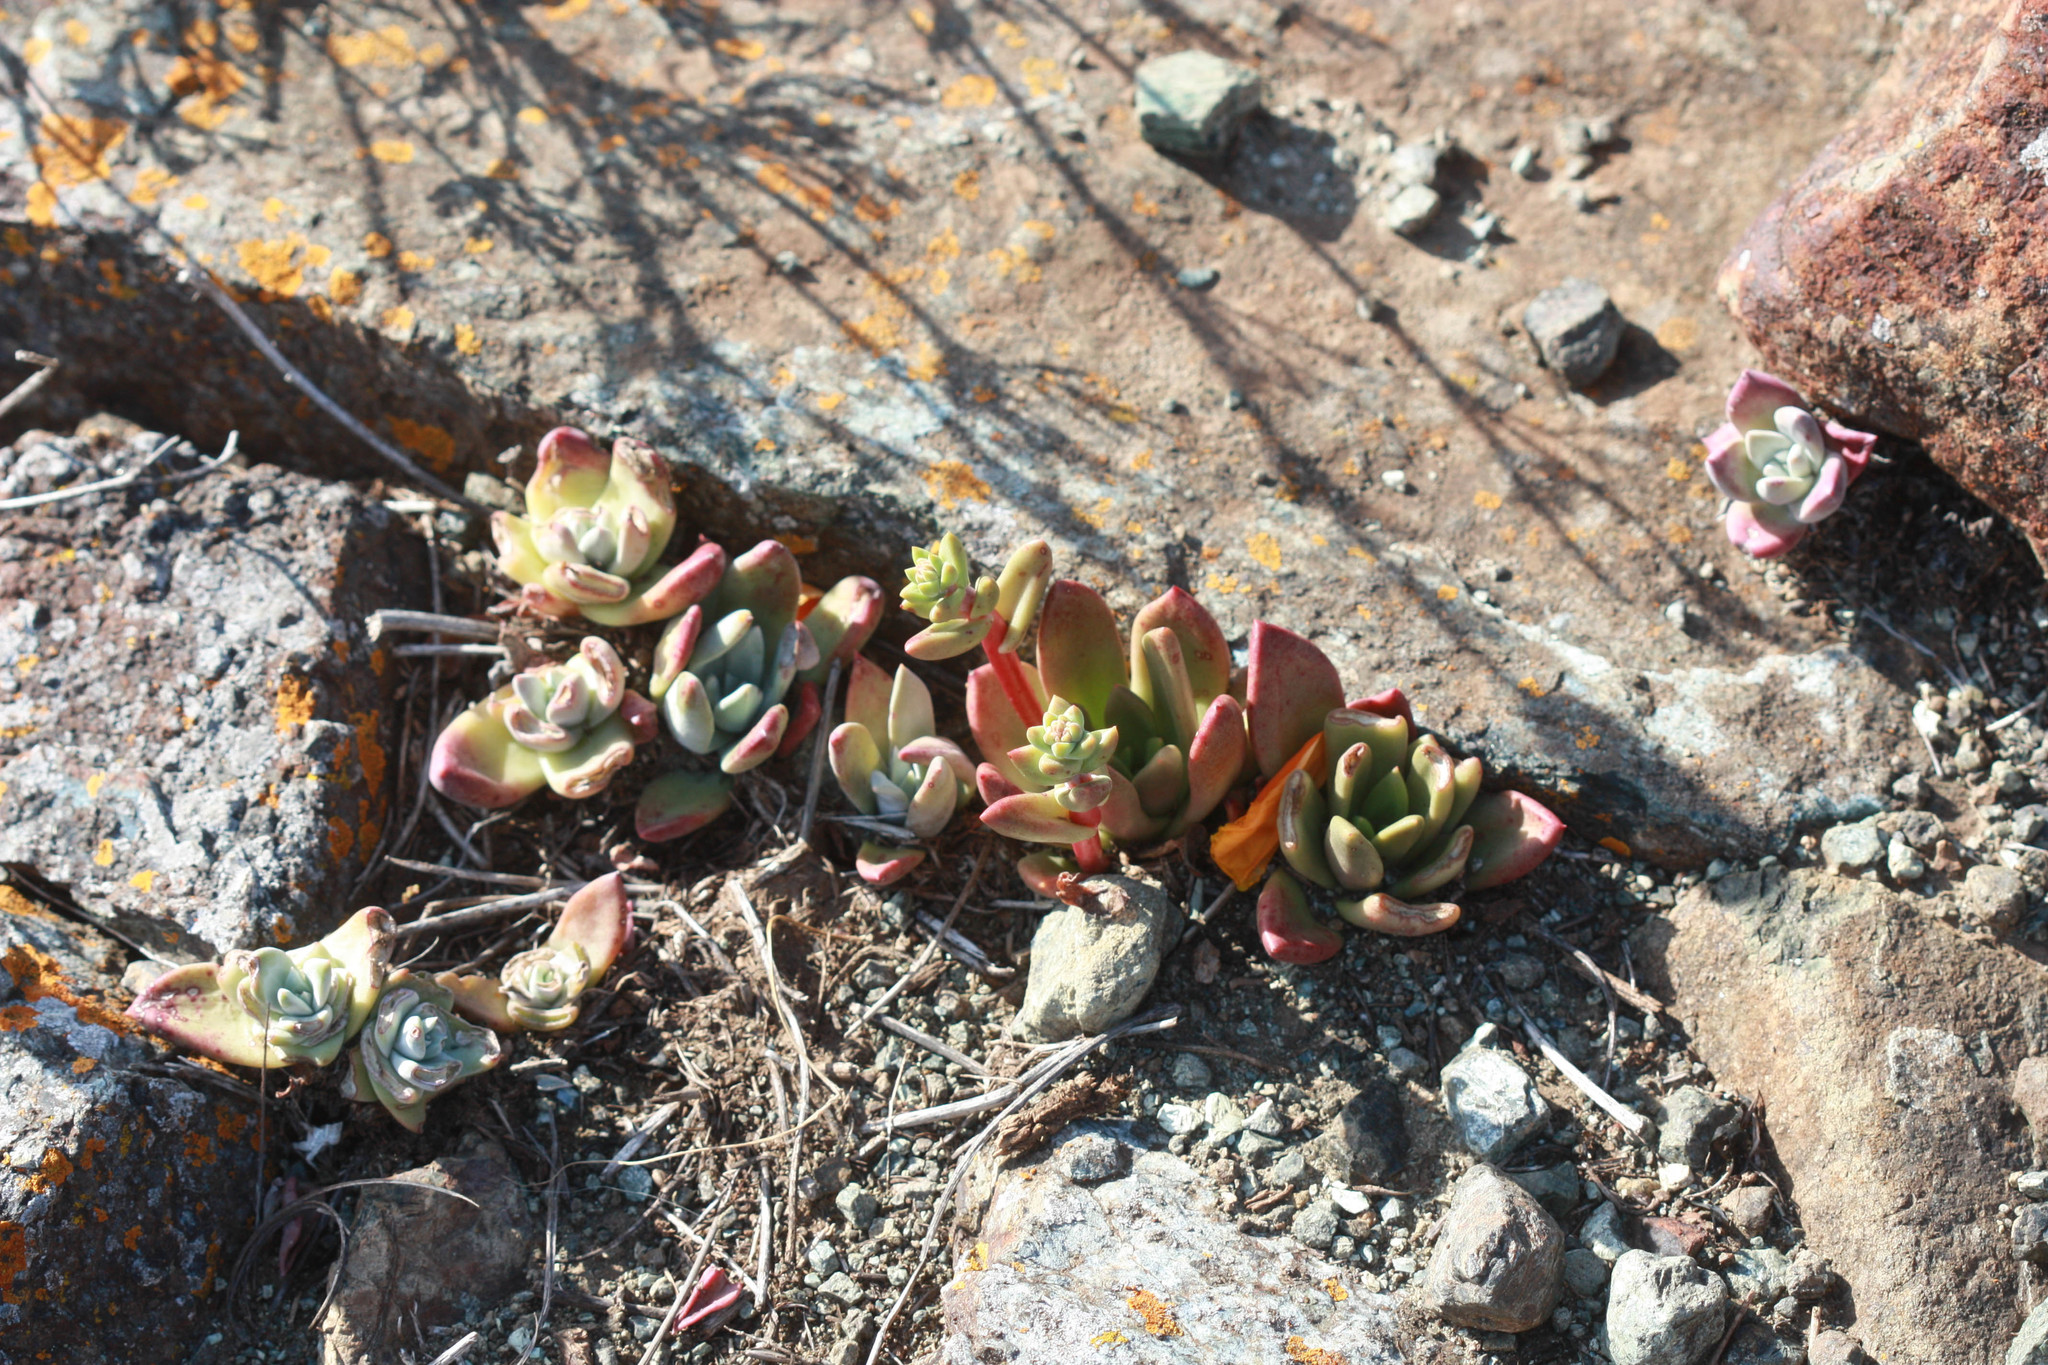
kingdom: Plantae
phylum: Tracheophyta
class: Magnoliopsida
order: Saxifragales
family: Crassulaceae
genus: Dudleya
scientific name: Dudleya farinosa
